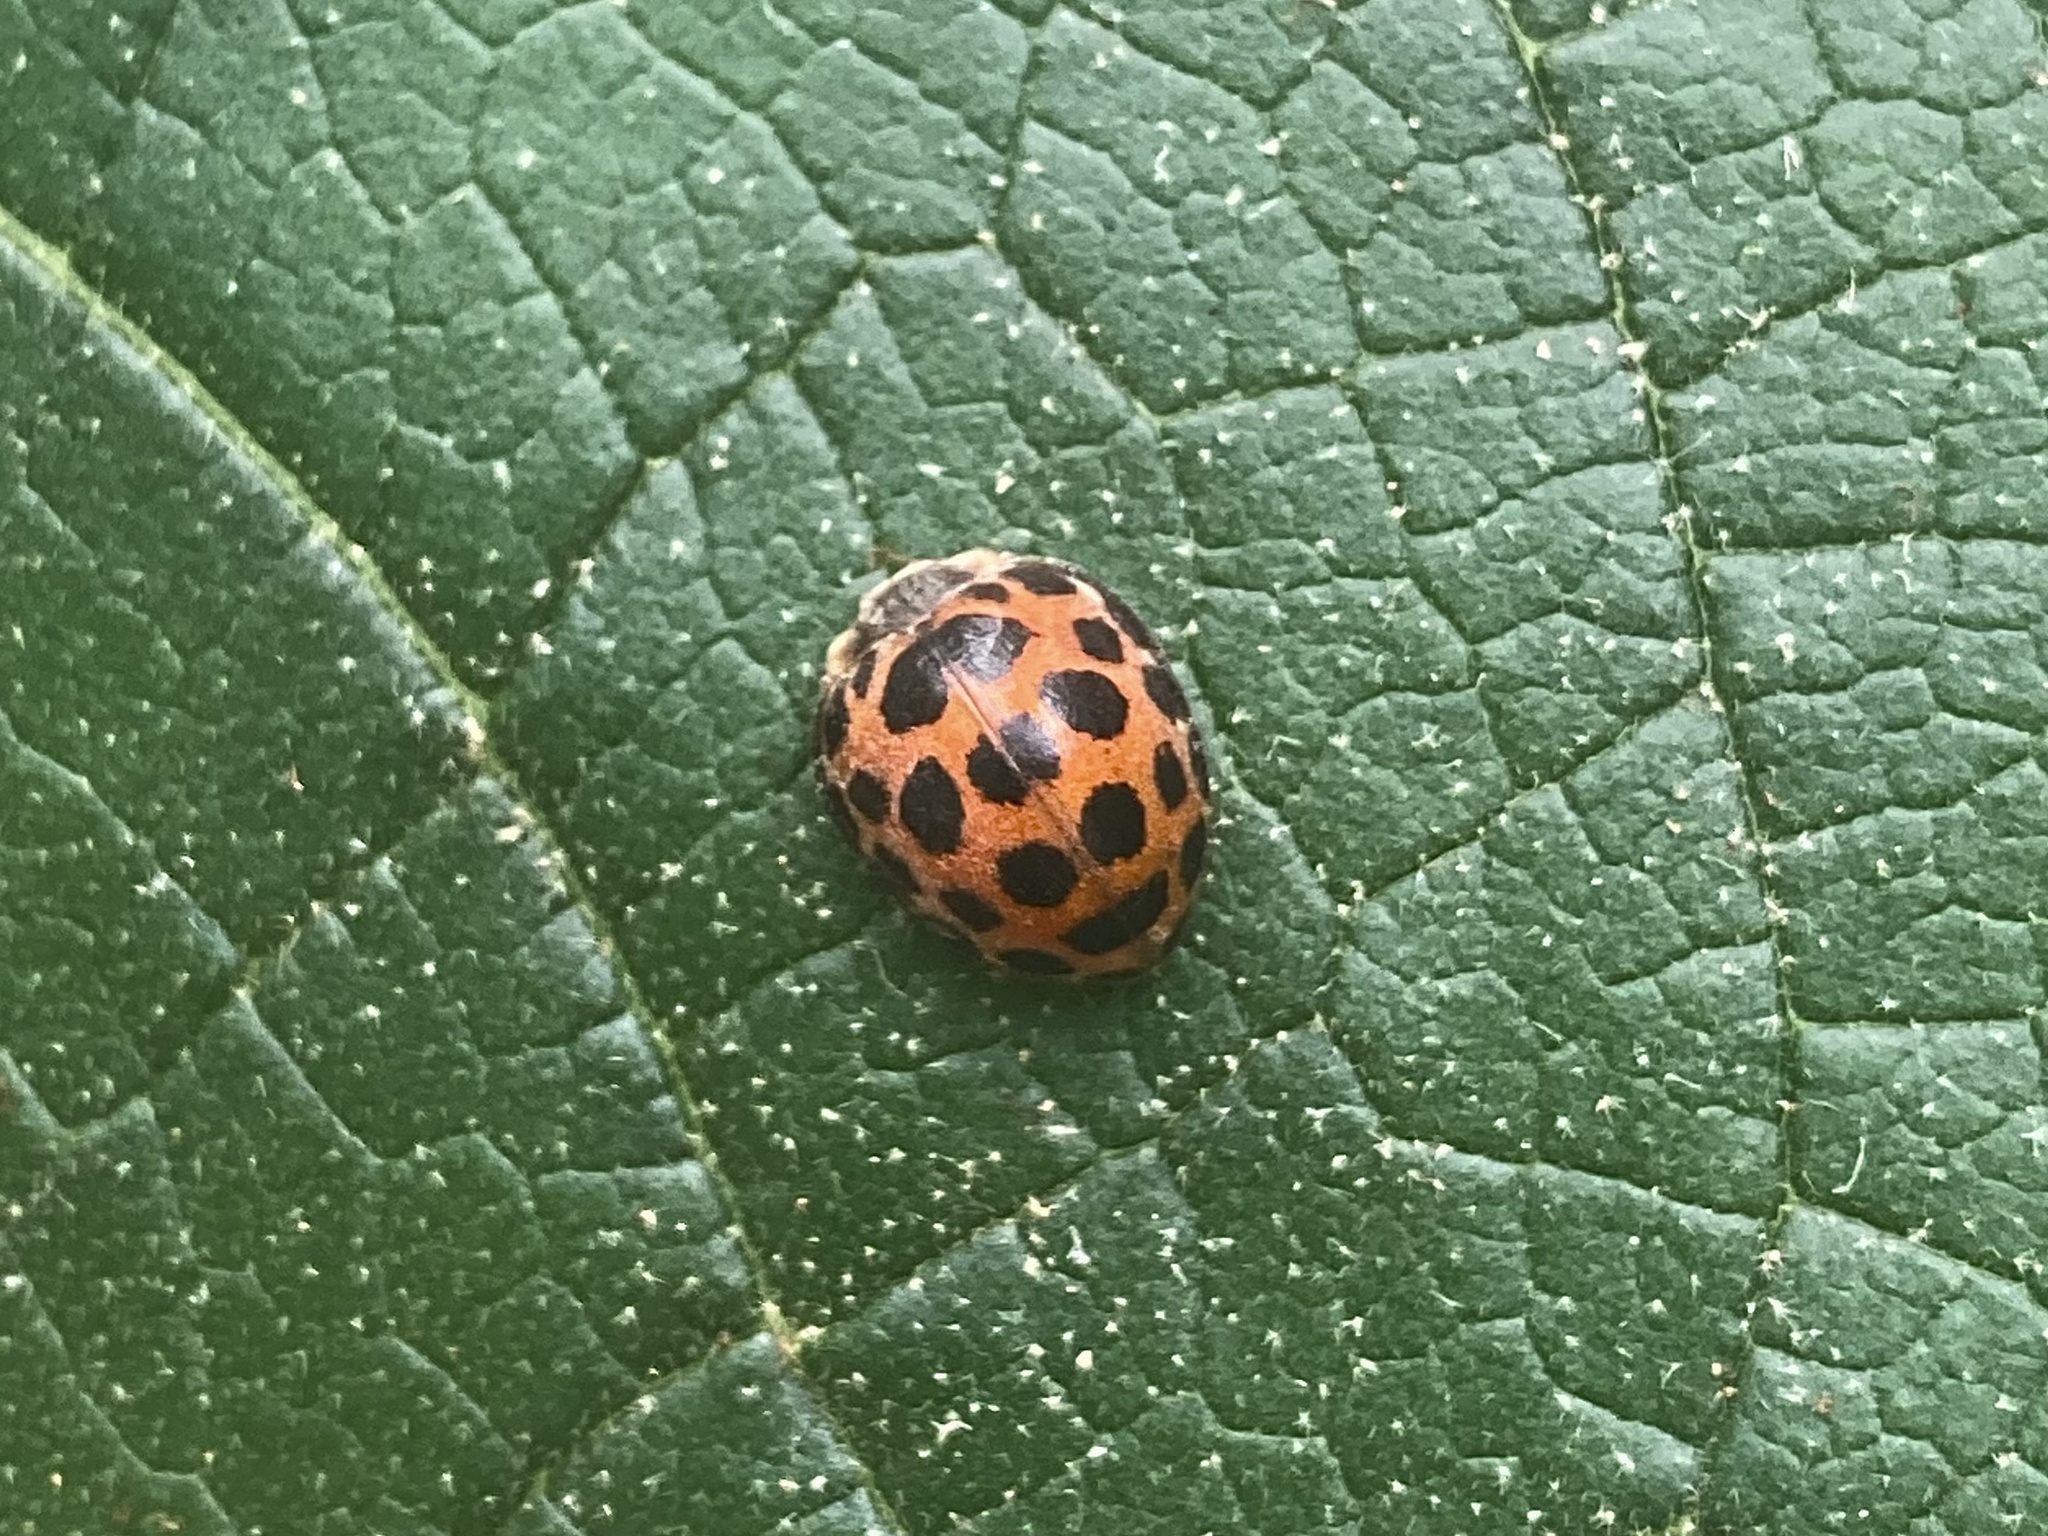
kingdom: Animalia
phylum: Arthropoda
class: Insecta
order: Coleoptera
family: Coccinellidae
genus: Harmonia
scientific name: Harmonia conformis
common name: Common spotted ladybird beetle
